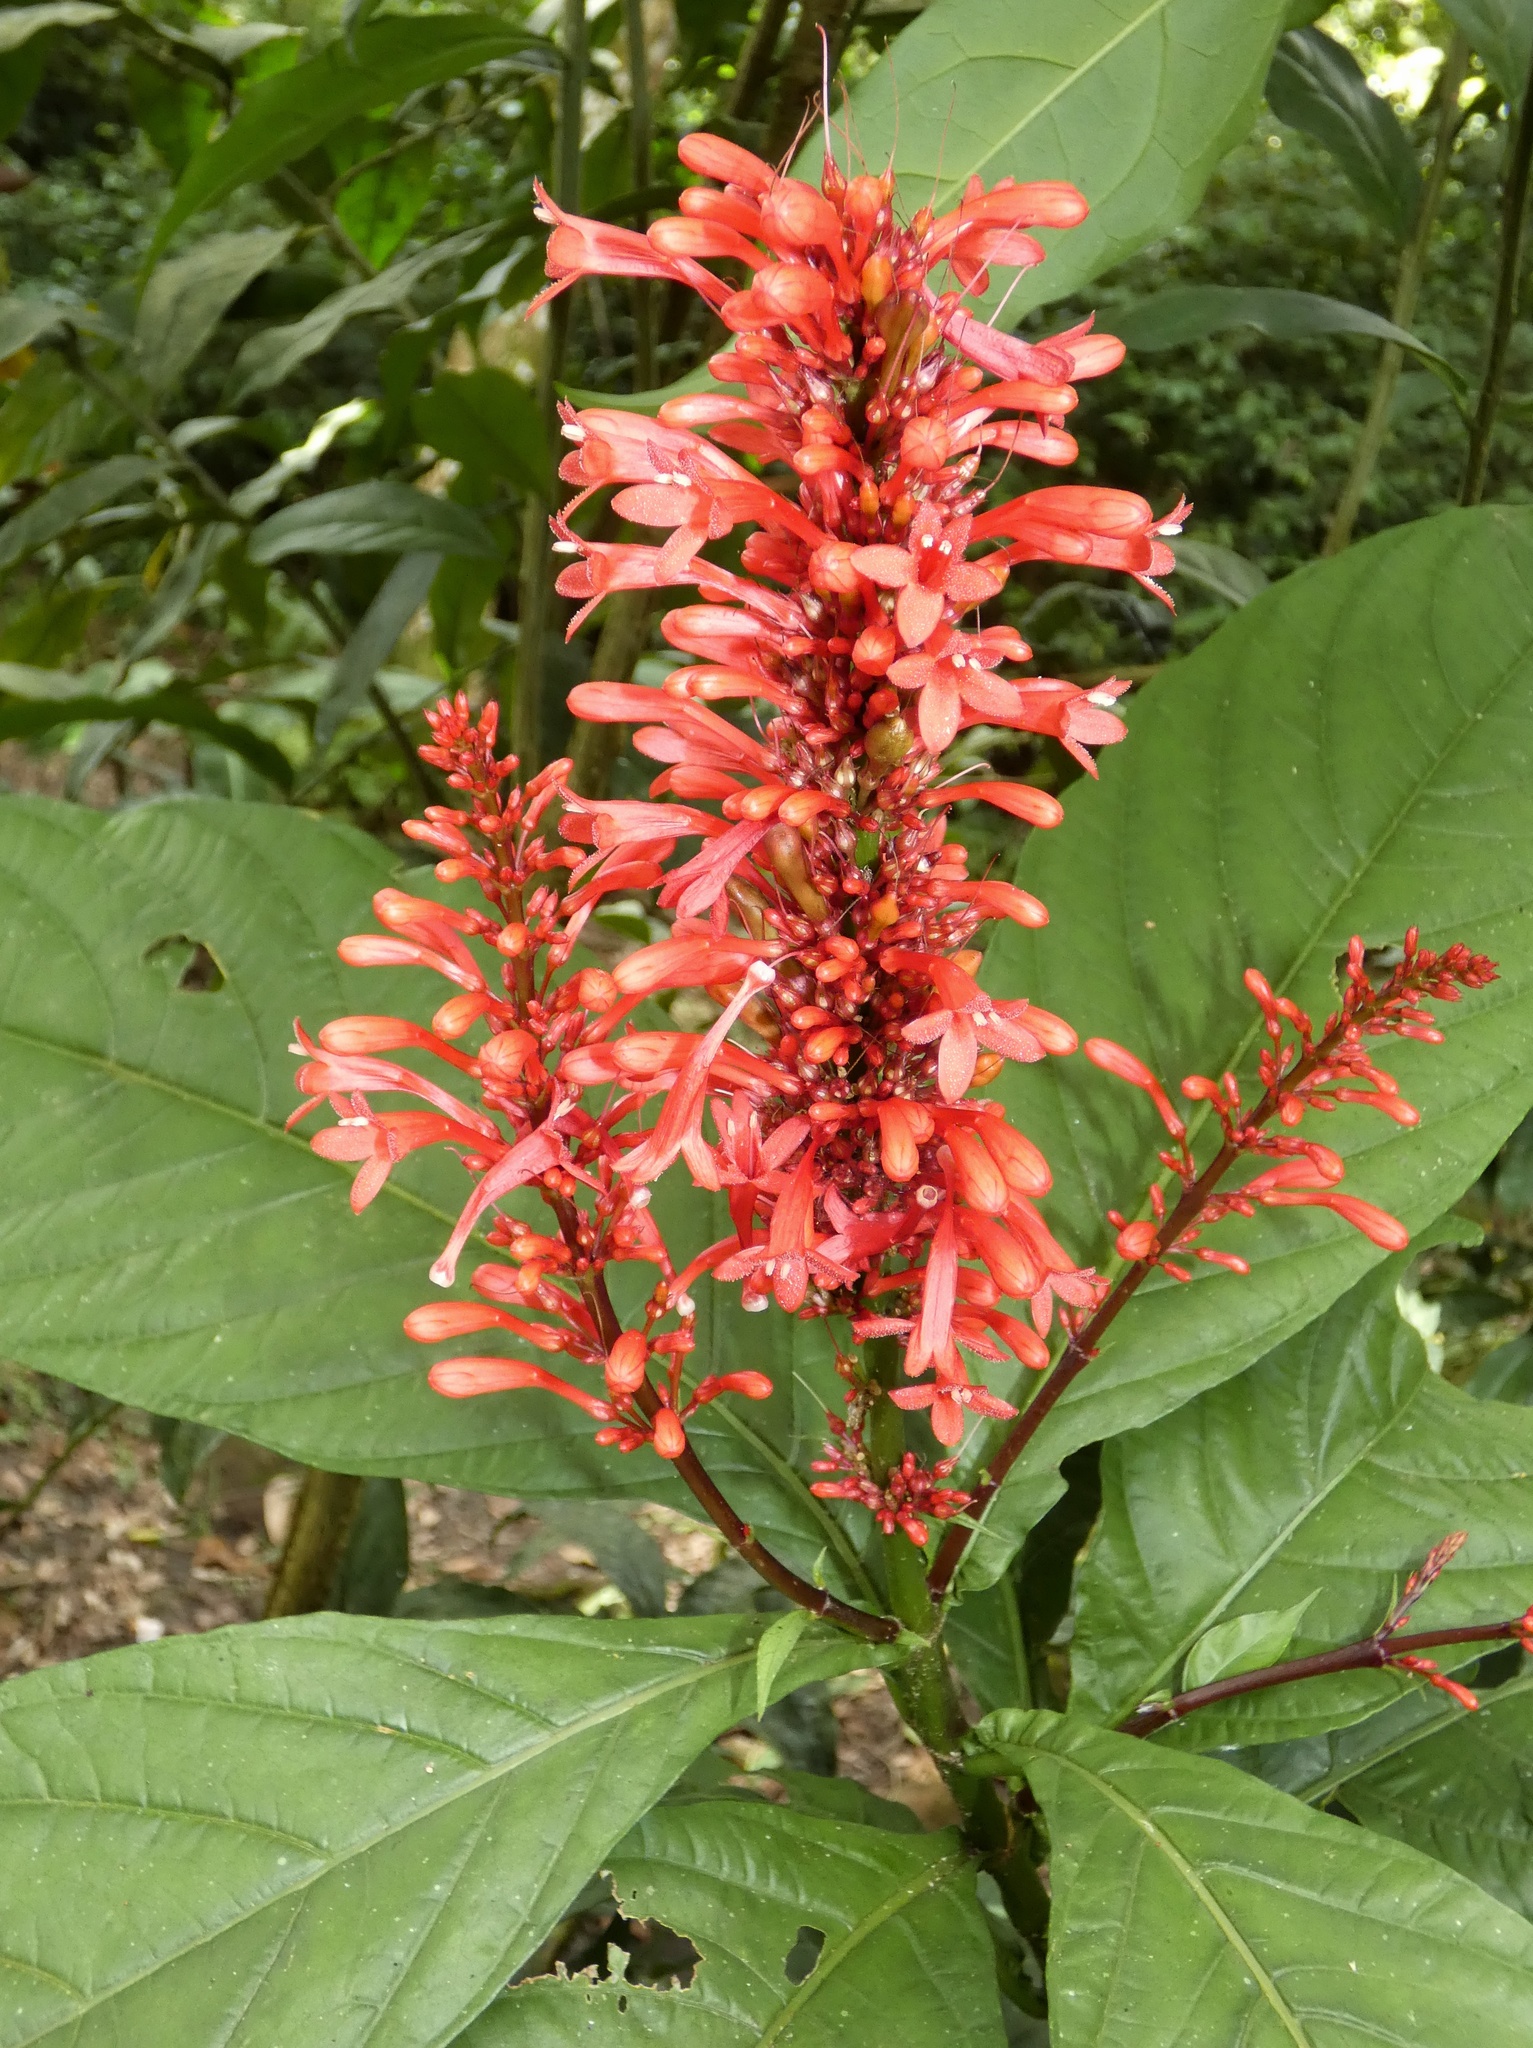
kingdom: Plantae
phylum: Tracheophyta
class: Magnoliopsida
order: Lamiales
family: Acanthaceae
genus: Odontonema
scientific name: Odontonema tubaeforme
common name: Firespike
